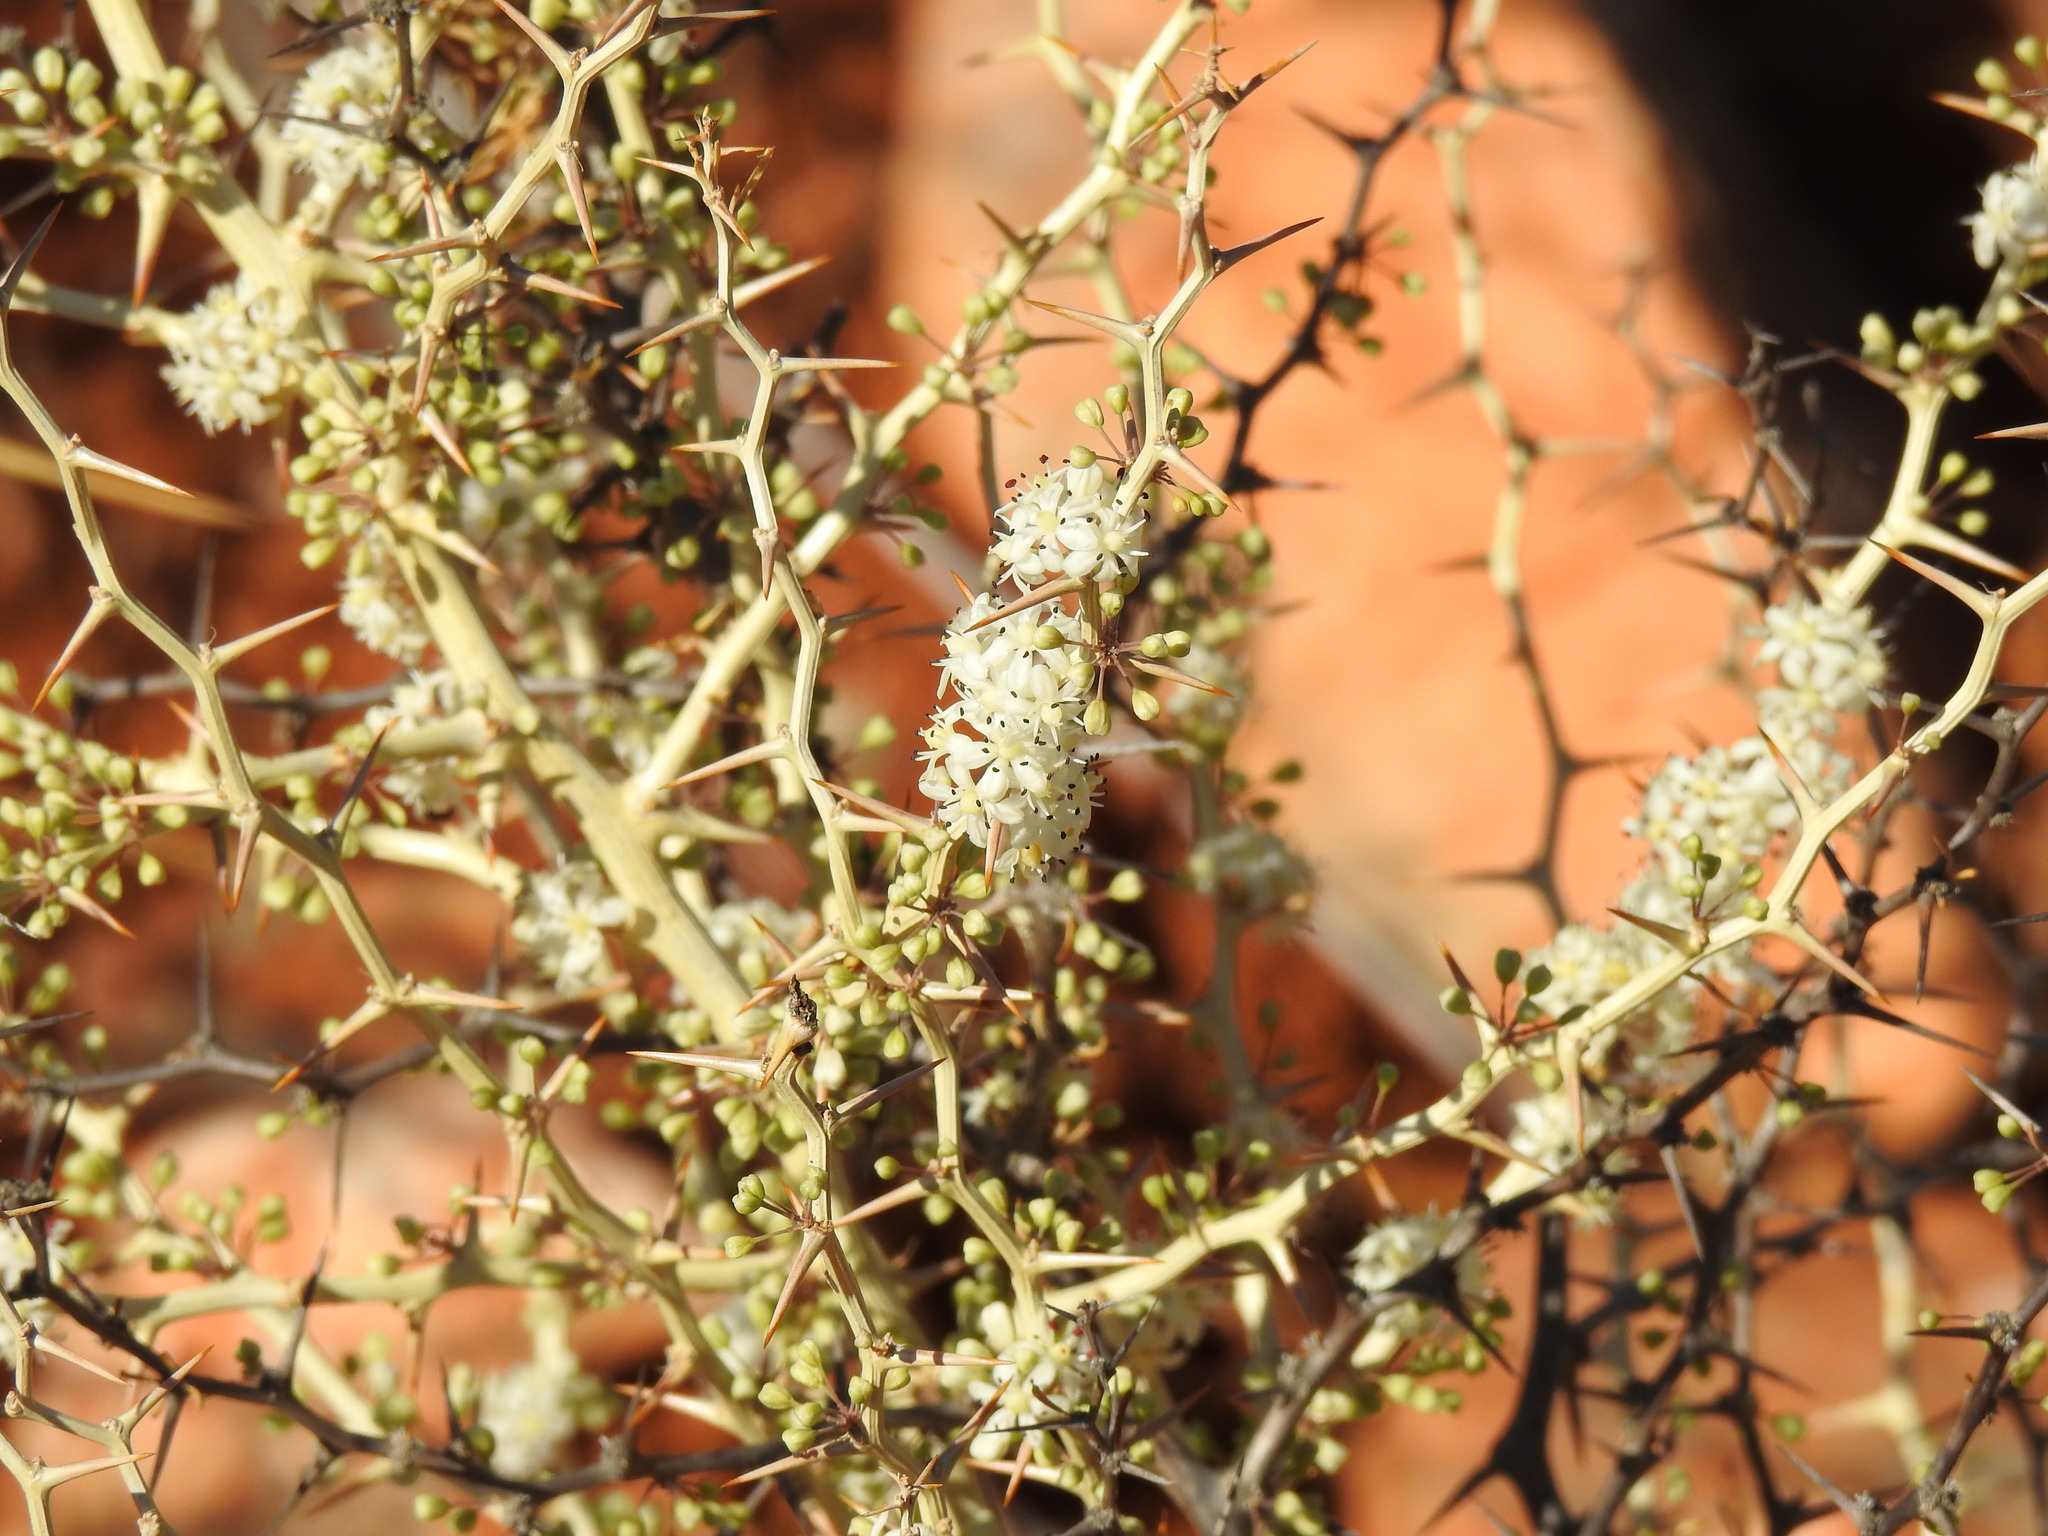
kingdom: Plantae
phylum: Tracheophyta
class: Liliopsida
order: Asparagales
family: Asparagaceae
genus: Asparagus
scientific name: Asparagus albus
